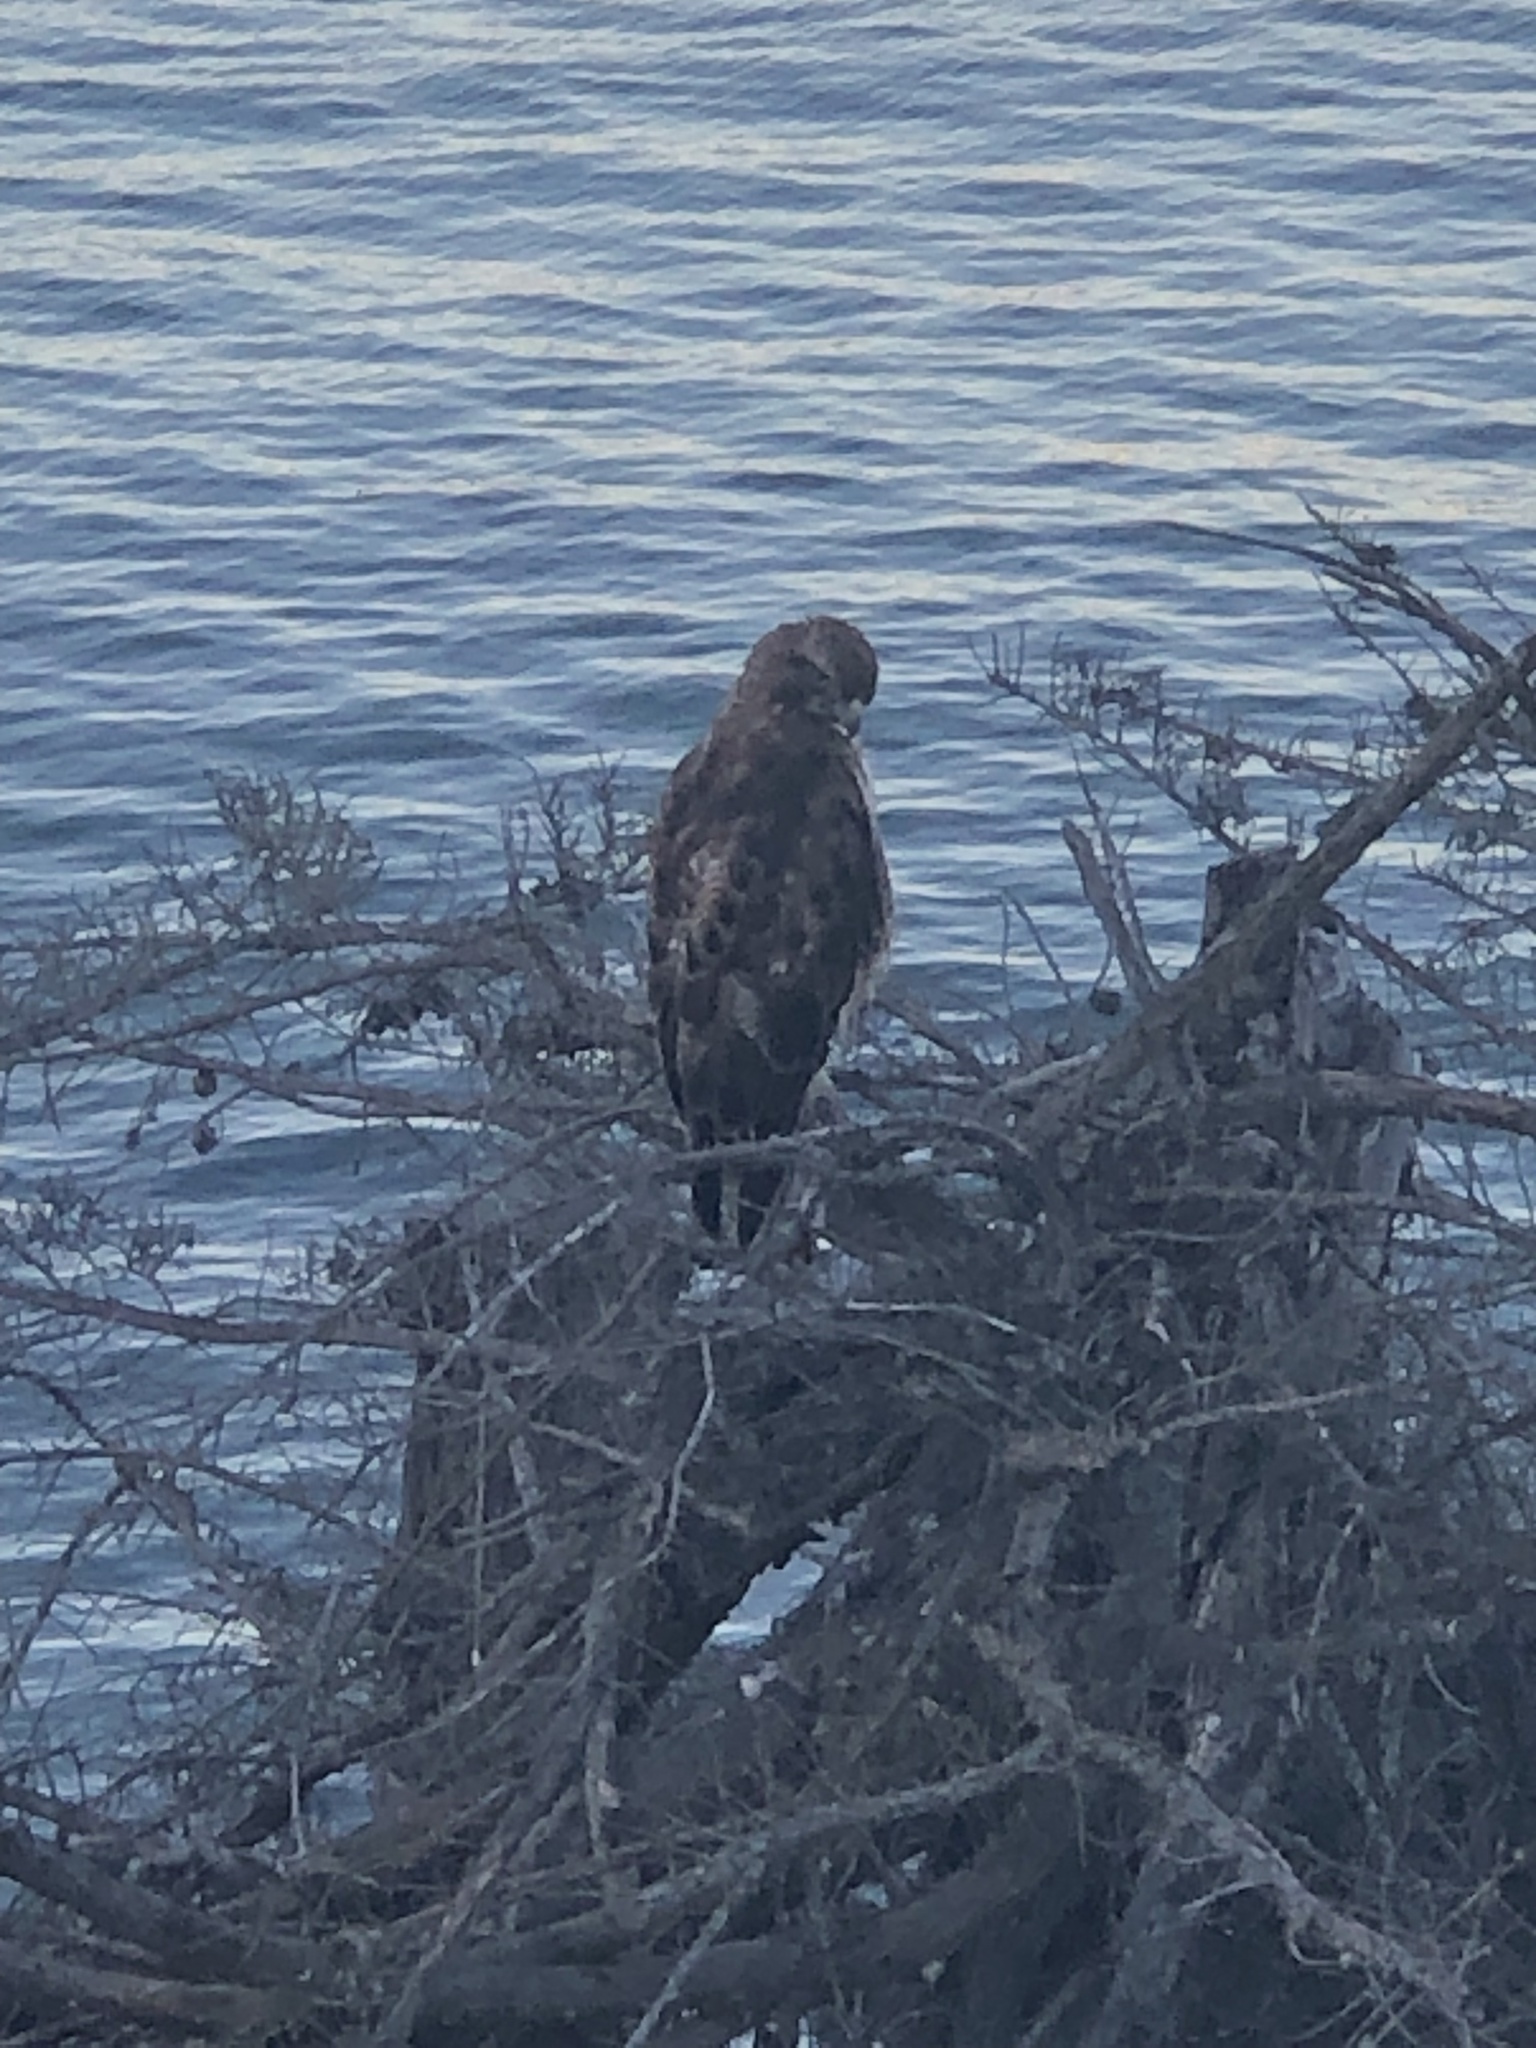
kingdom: Animalia
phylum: Chordata
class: Aves
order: Accipitriformes
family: Accipitridae
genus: Buteo
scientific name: Buteo jamaicensis
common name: Red-tailed hawk
